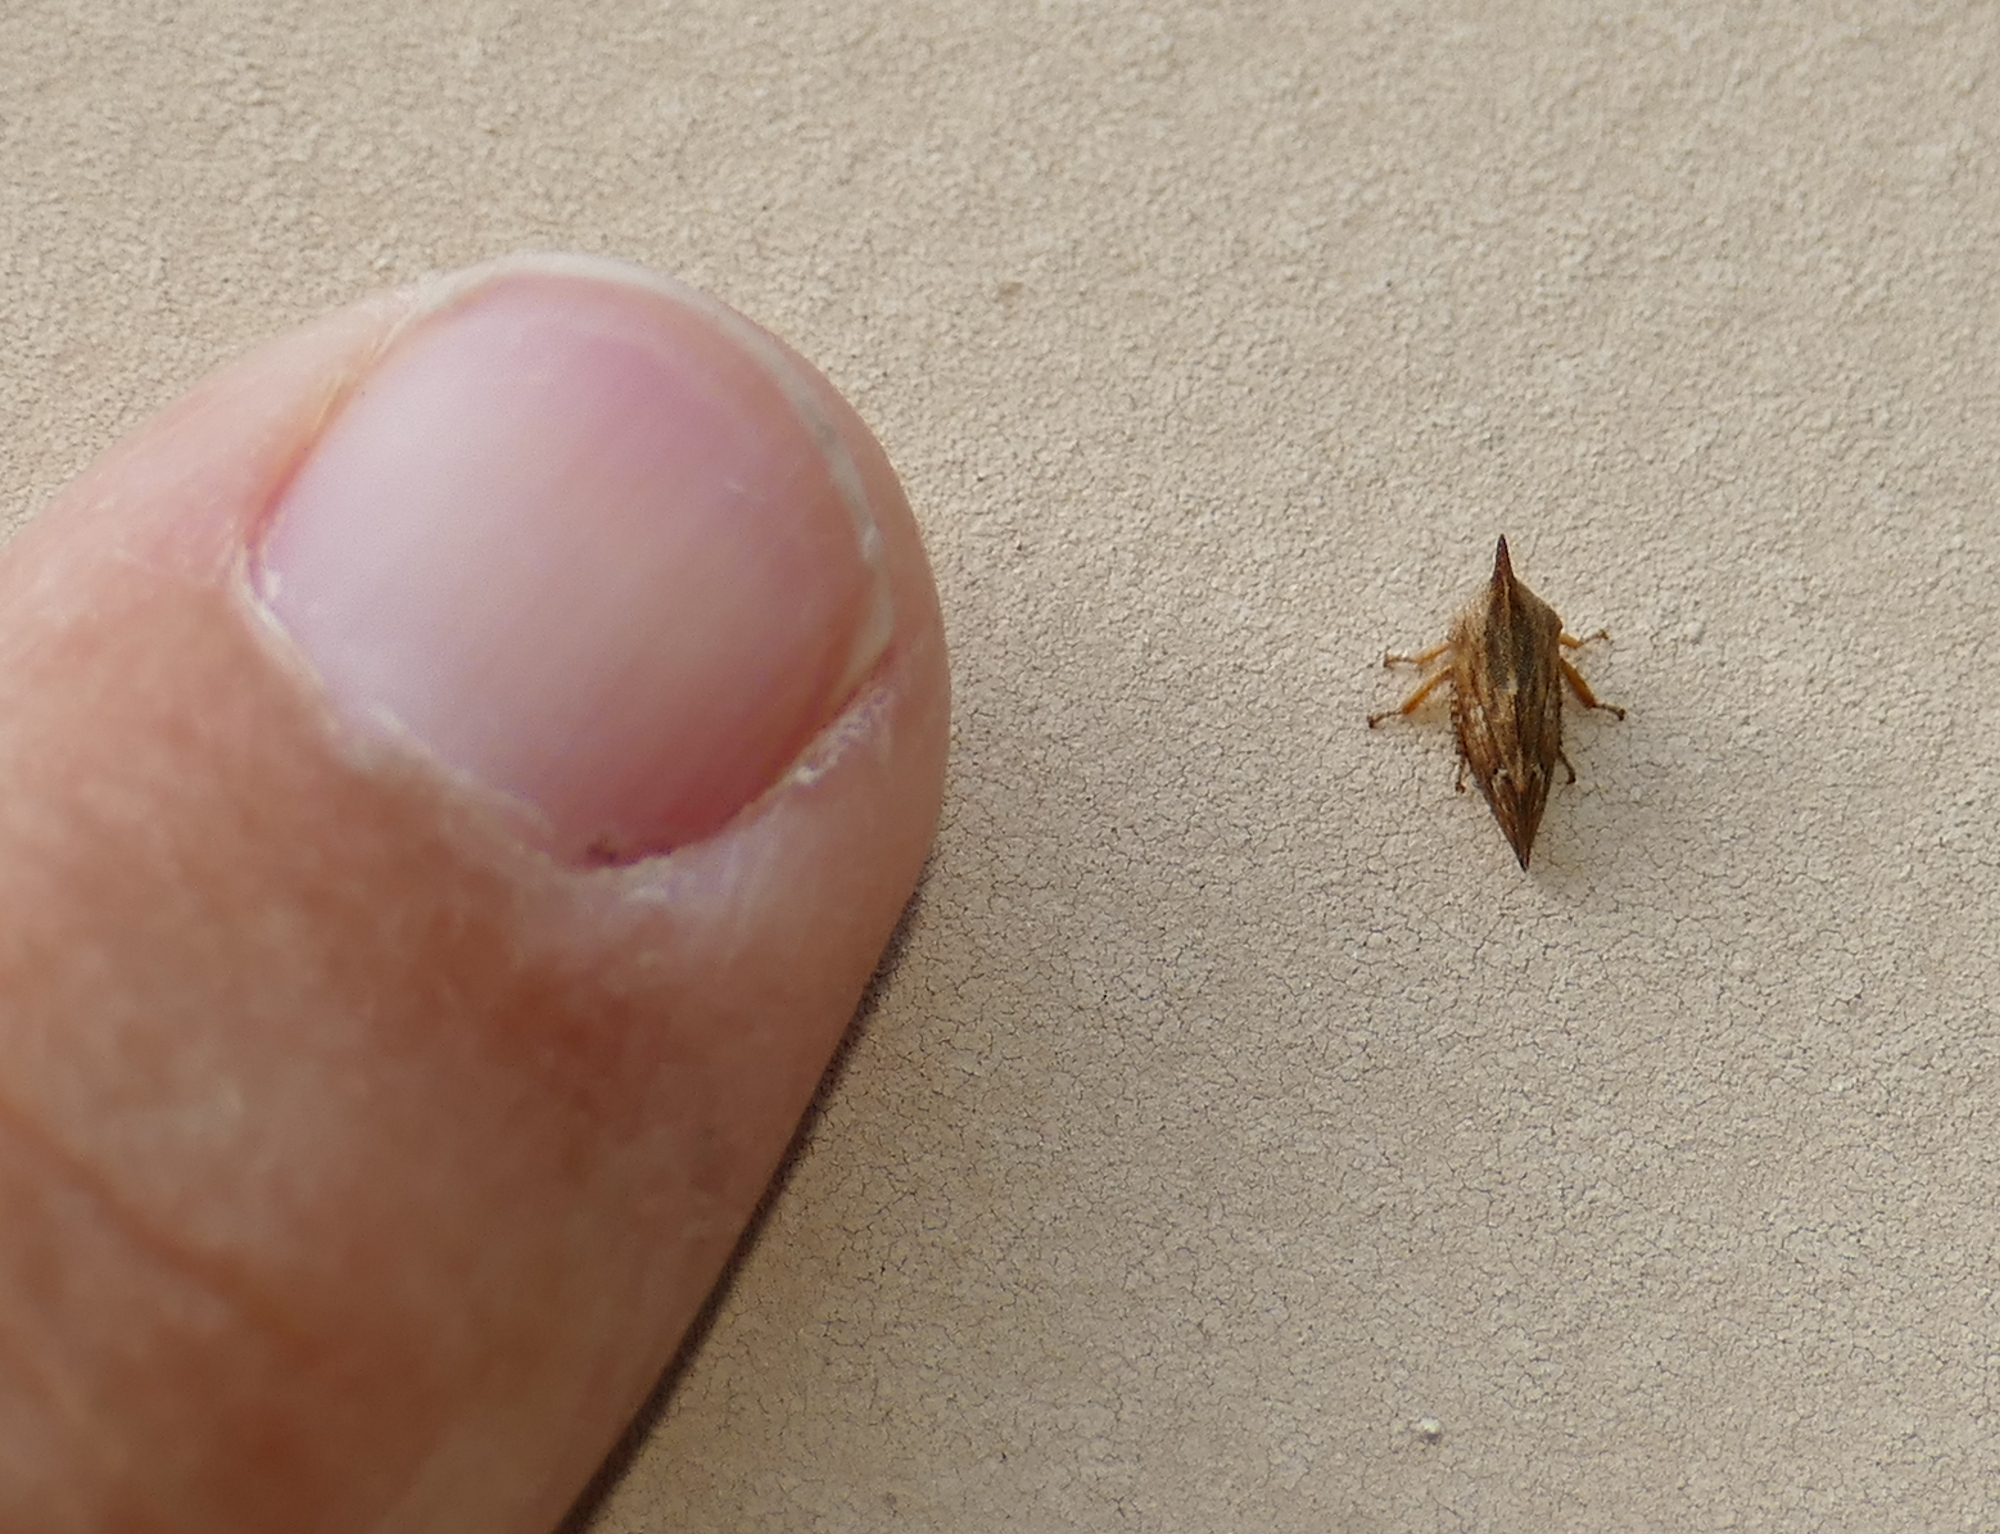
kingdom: Animalia
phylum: Arthropoda
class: Insecta
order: Hemiptera
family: Membracidae
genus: Enchenopa
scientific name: Enchenopa permutata
